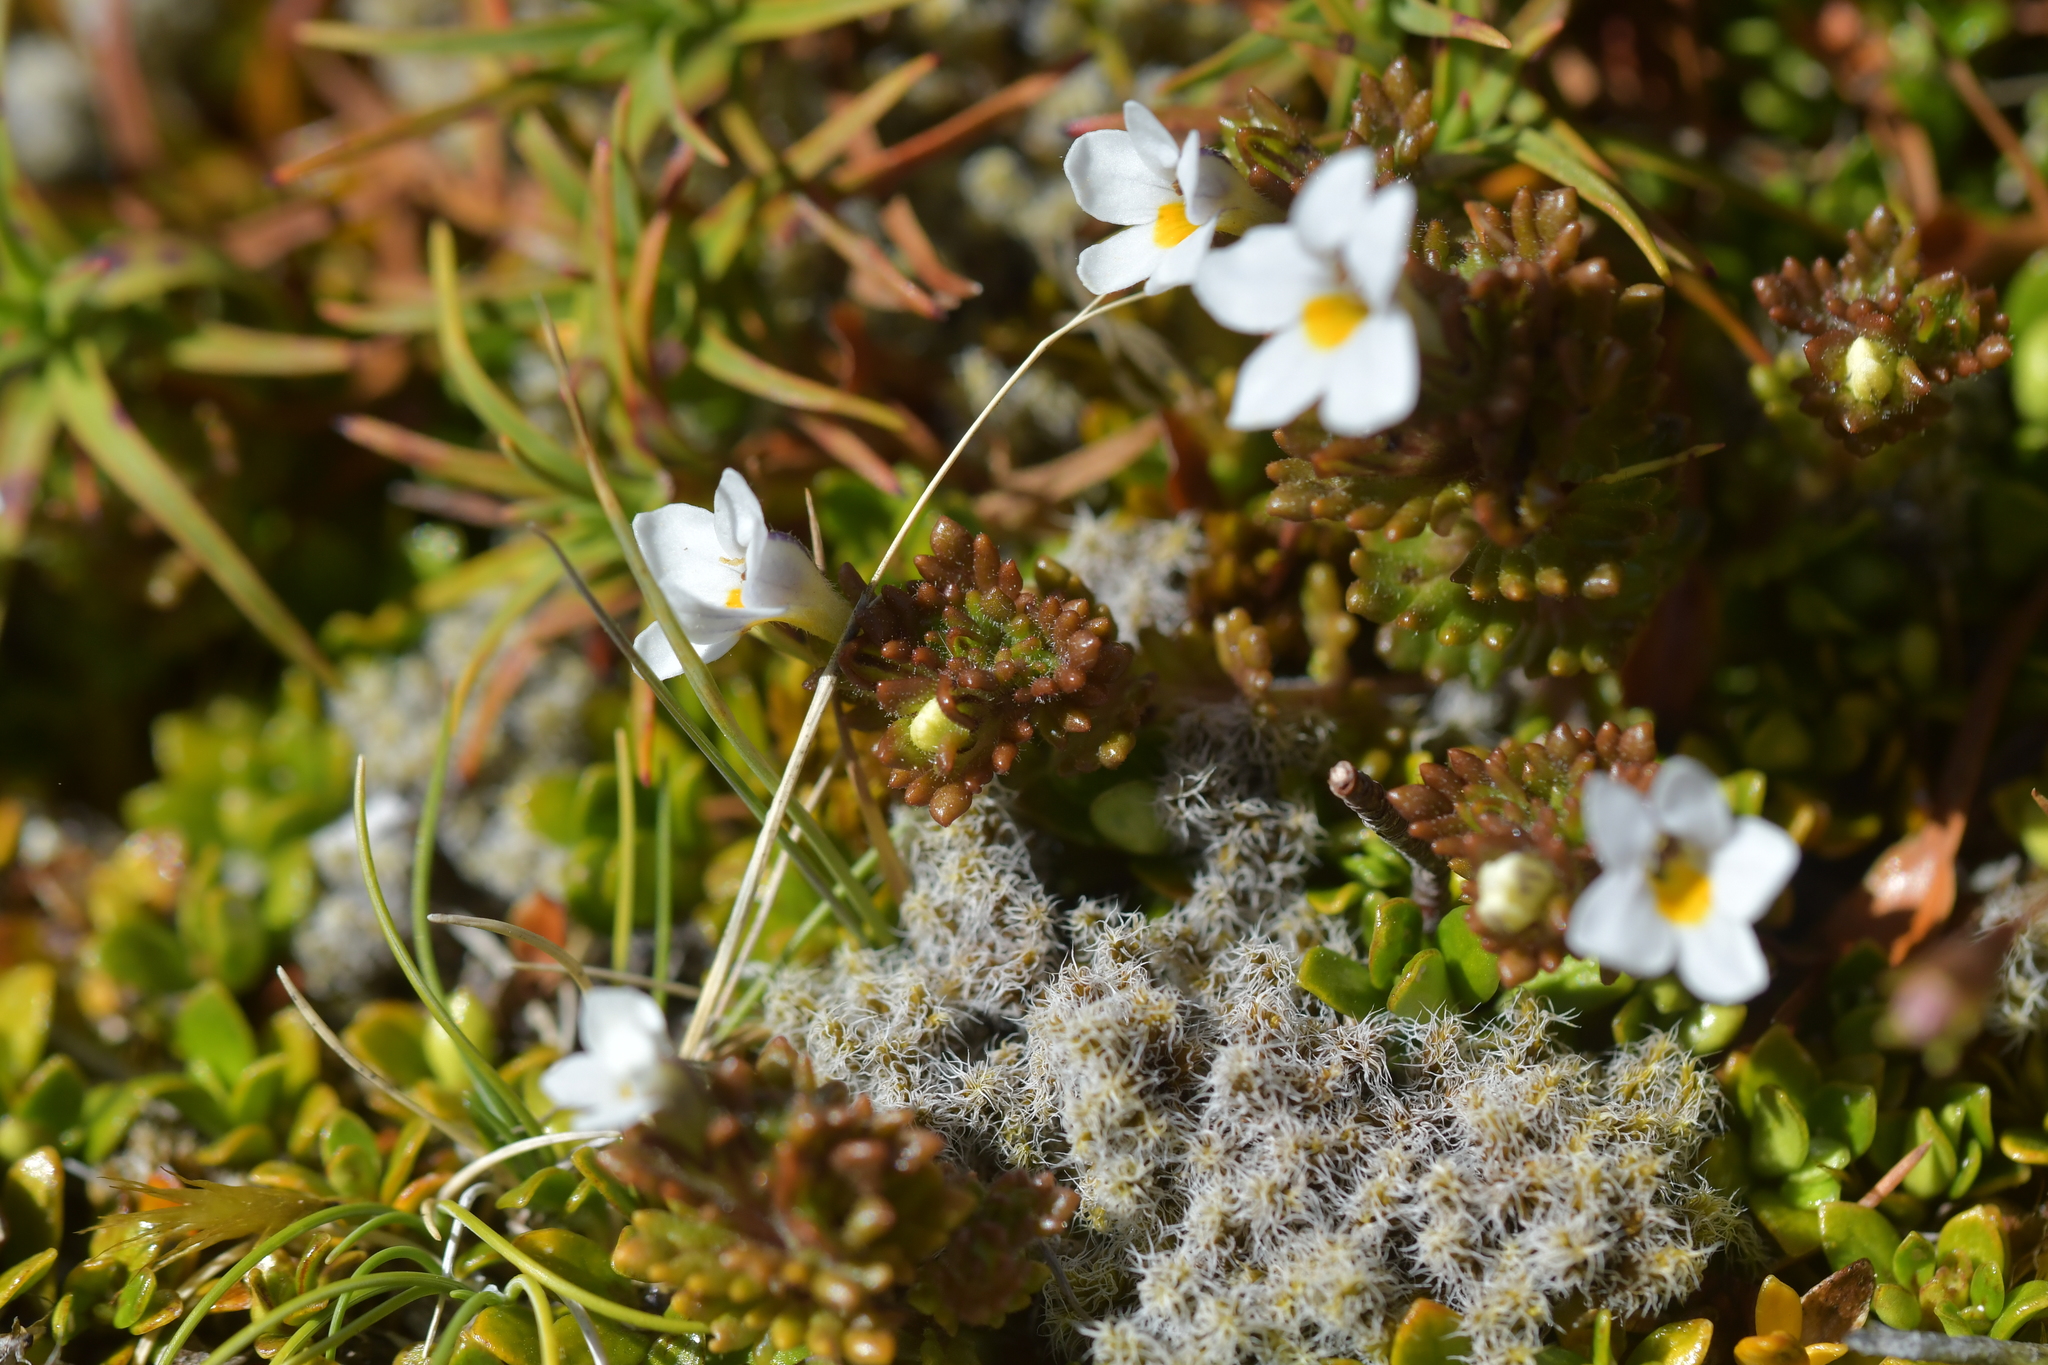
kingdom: Plantae
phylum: Tracheophyta
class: Magnoliopsida
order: Lamiales
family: Orobanchaceae
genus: Euphrasia
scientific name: Euphrasia zelandica
